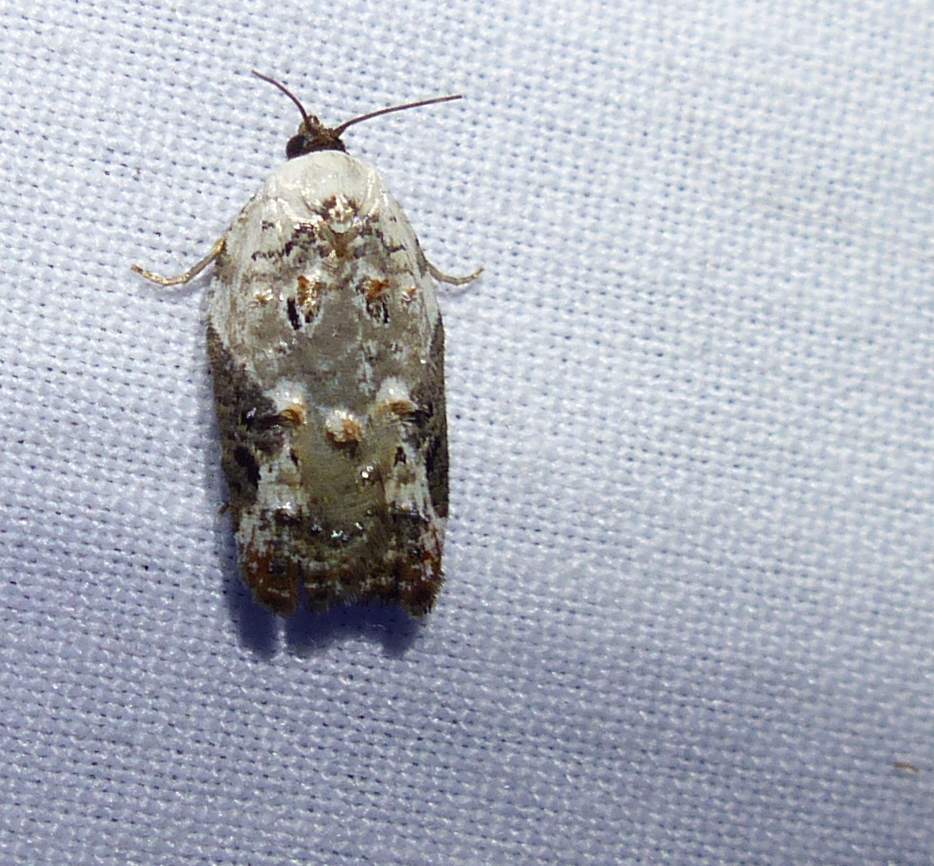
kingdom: Animalia
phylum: Arthropoda
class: Insecta
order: Lepidoptera
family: Tortricidae
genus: Acleris
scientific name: Acleris nivisellana
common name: Snowy-shouldered acleris moth
